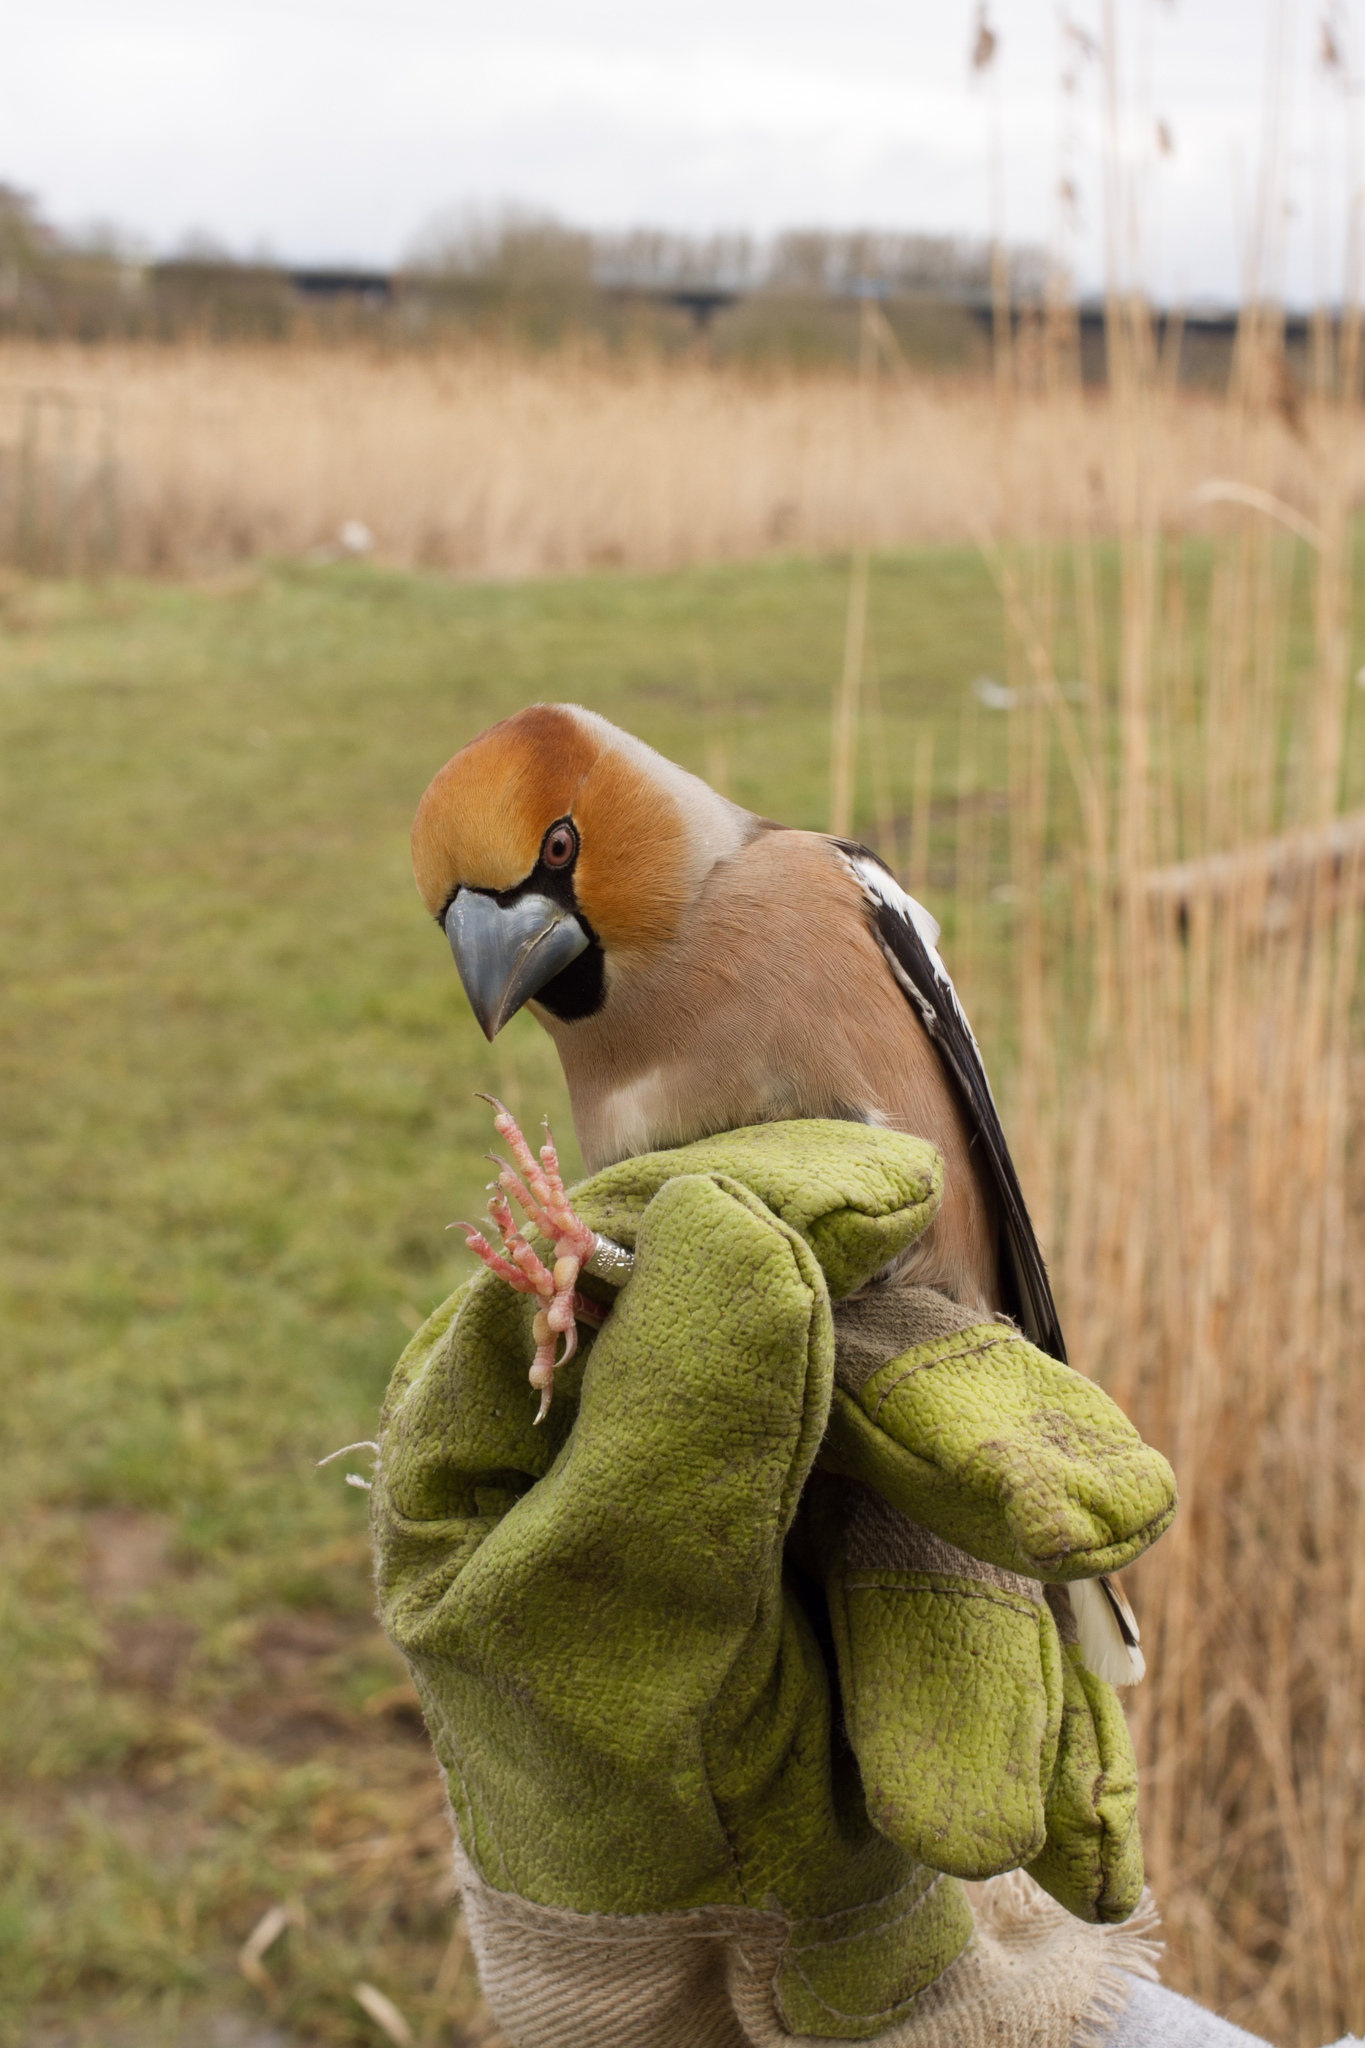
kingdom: Animalia
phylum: Chordata
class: Aves
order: Passeriformes
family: Fringillidae
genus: Coccothraustes
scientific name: Coccothraustes coccothraustes
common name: Hawfinch
